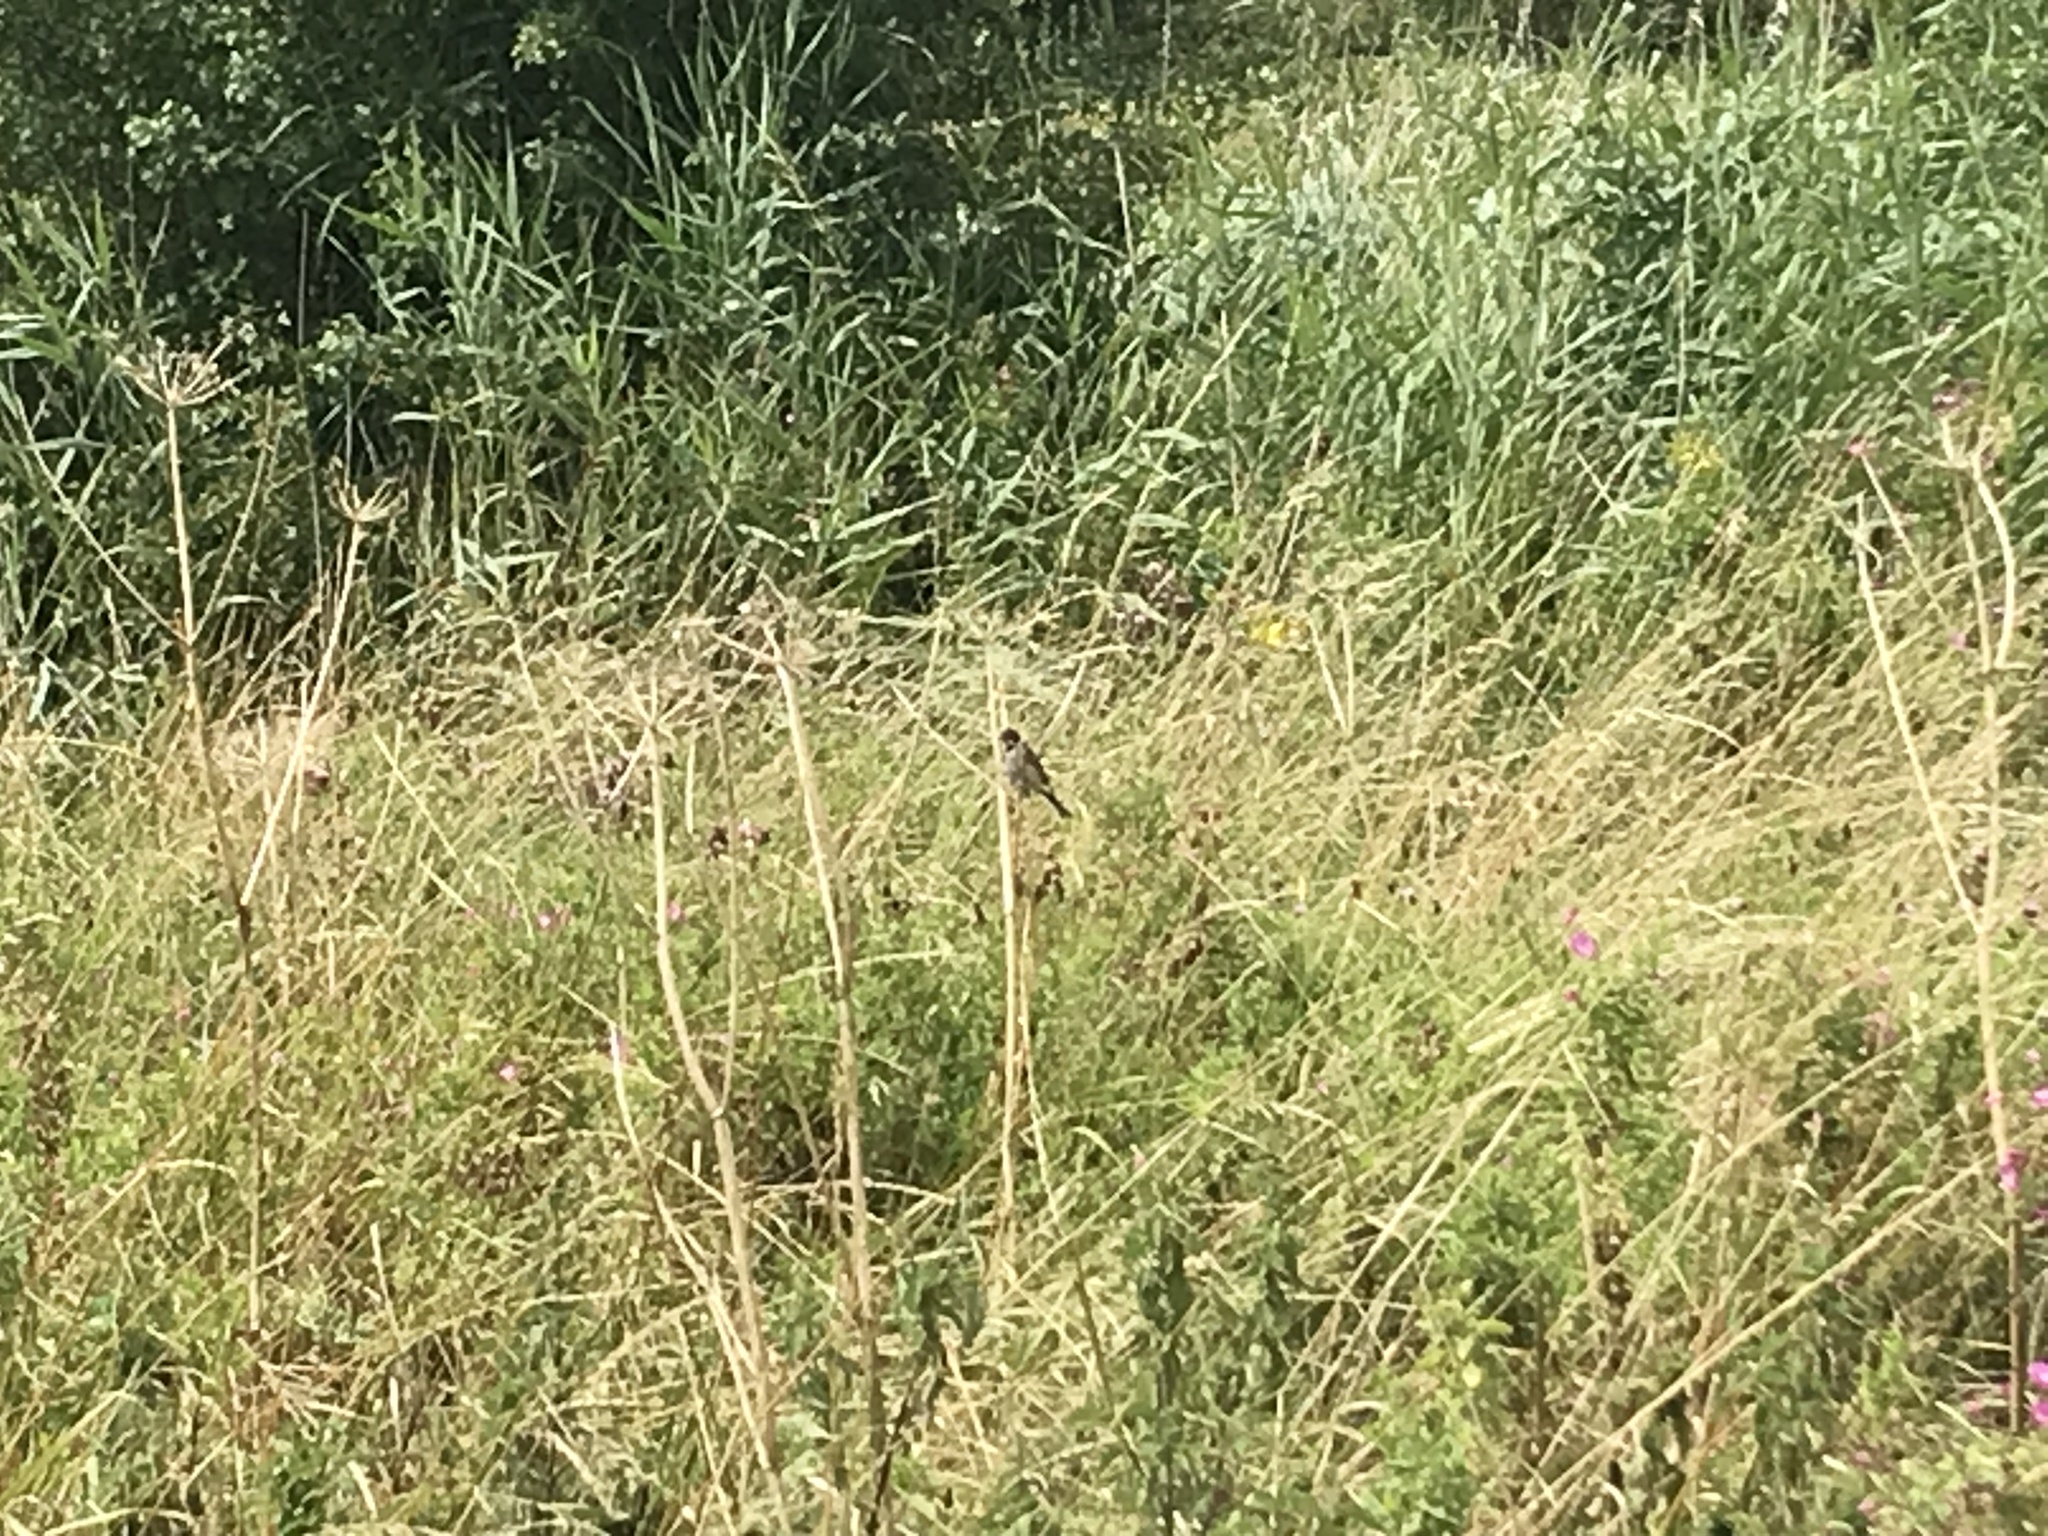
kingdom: Animalia
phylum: Chordata
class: Aves
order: Passeriformes
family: Emberizidae
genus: Emberiza
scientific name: Emberiza schoeniclus
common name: Reed bunting
